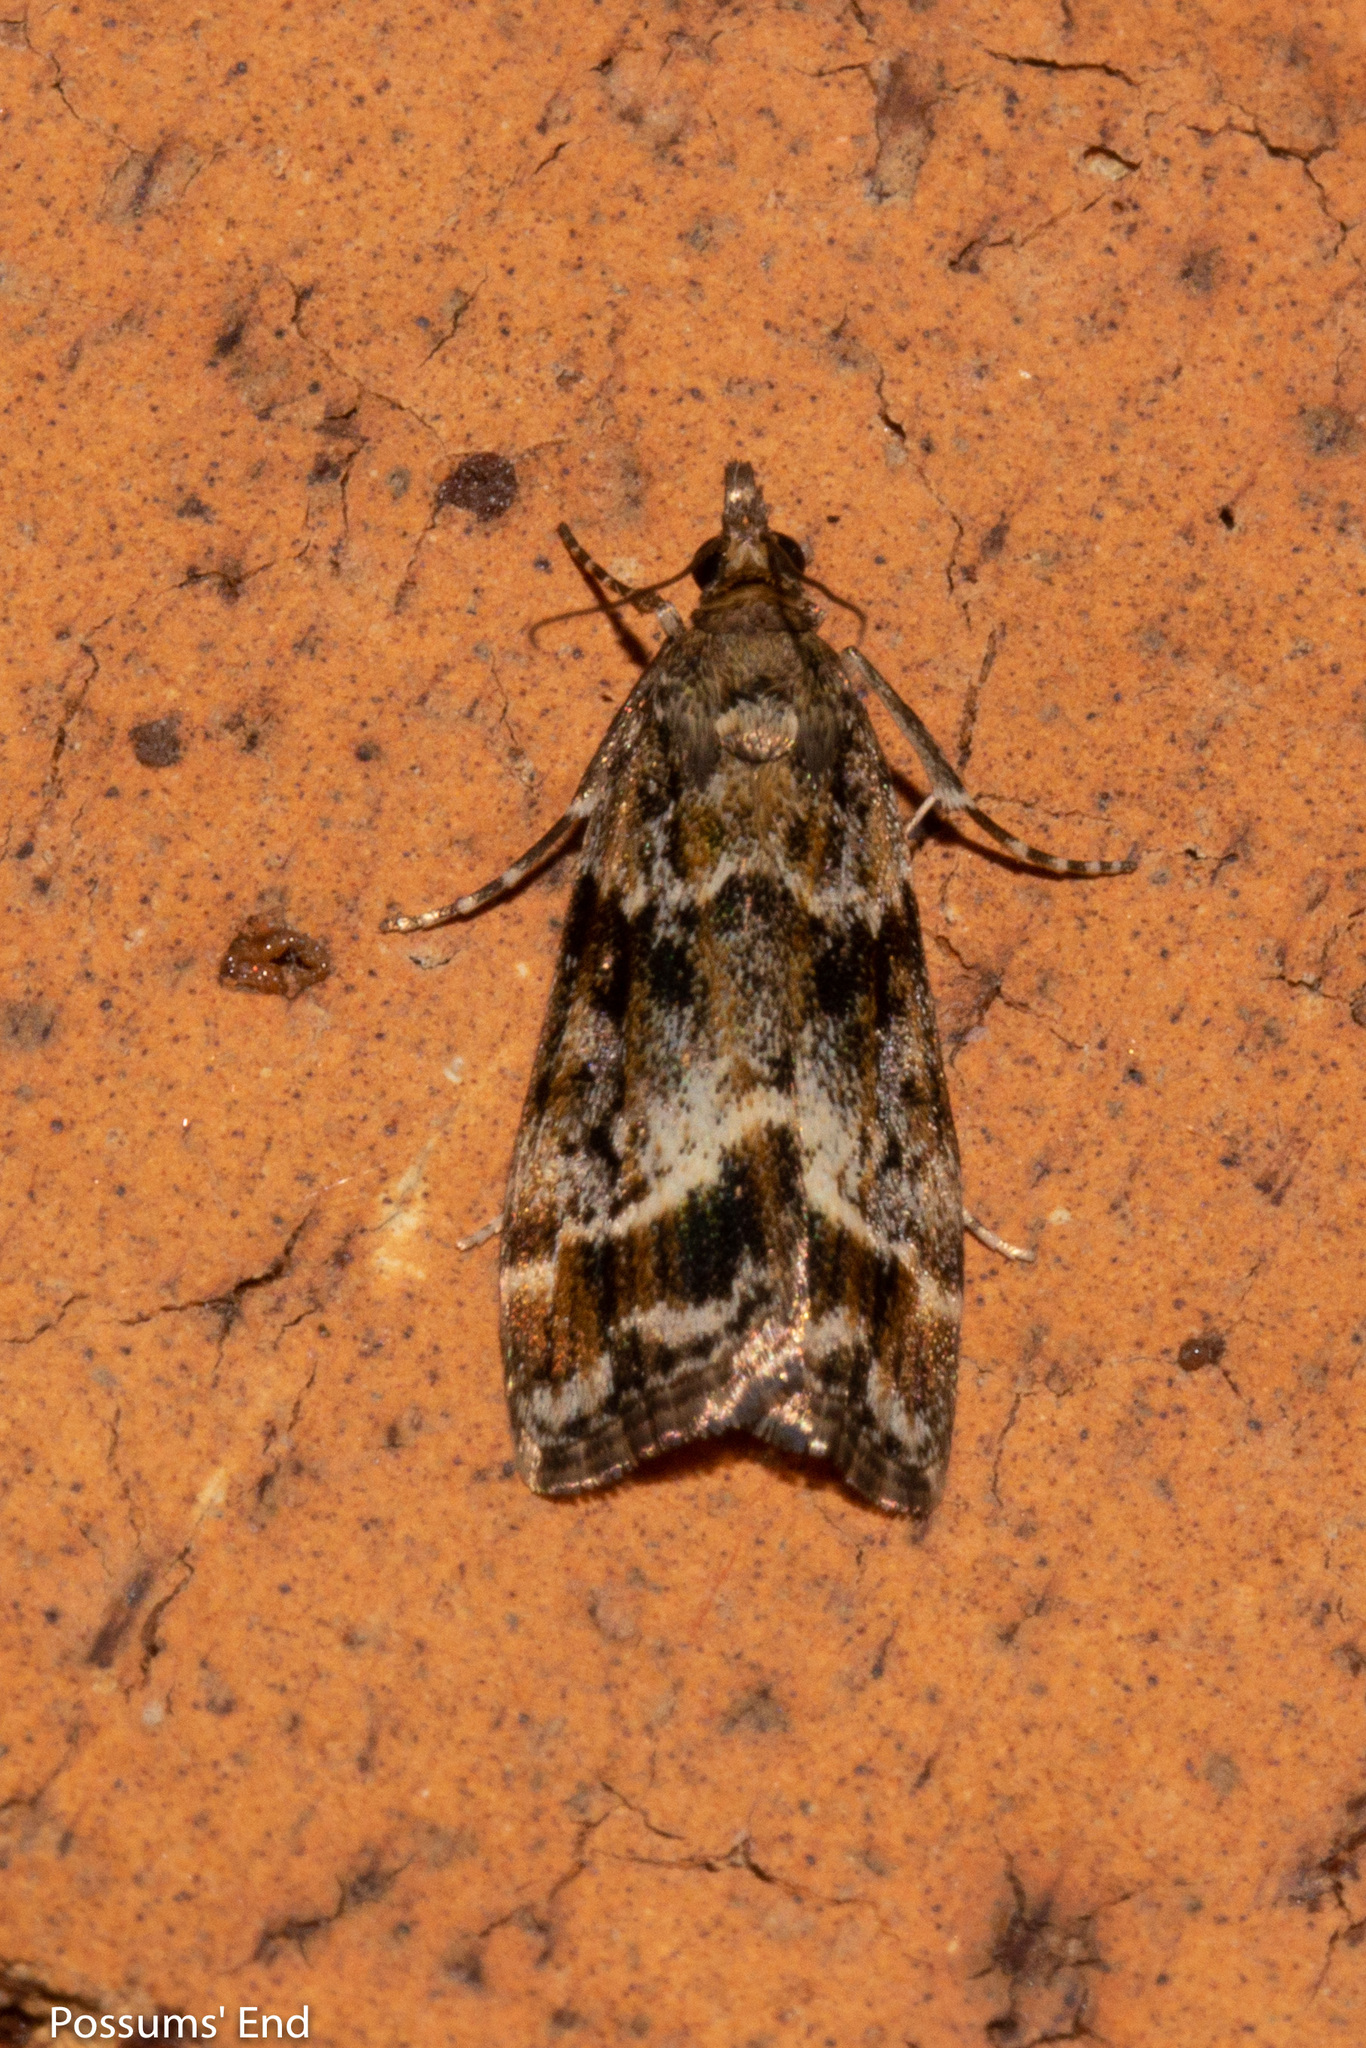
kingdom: Animalia
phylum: Arthropoda
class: Insecta
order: Lepidoptera
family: Crambidae
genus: Eudonia
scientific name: Eudonia legnota
